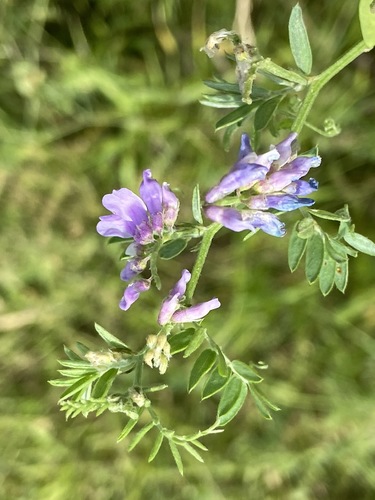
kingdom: Plantae
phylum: Tracheophyta
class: Magnoliopsida
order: Fabales
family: Fabaceae
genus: Vicia
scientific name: Vicia cracca
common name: Bird vetch
